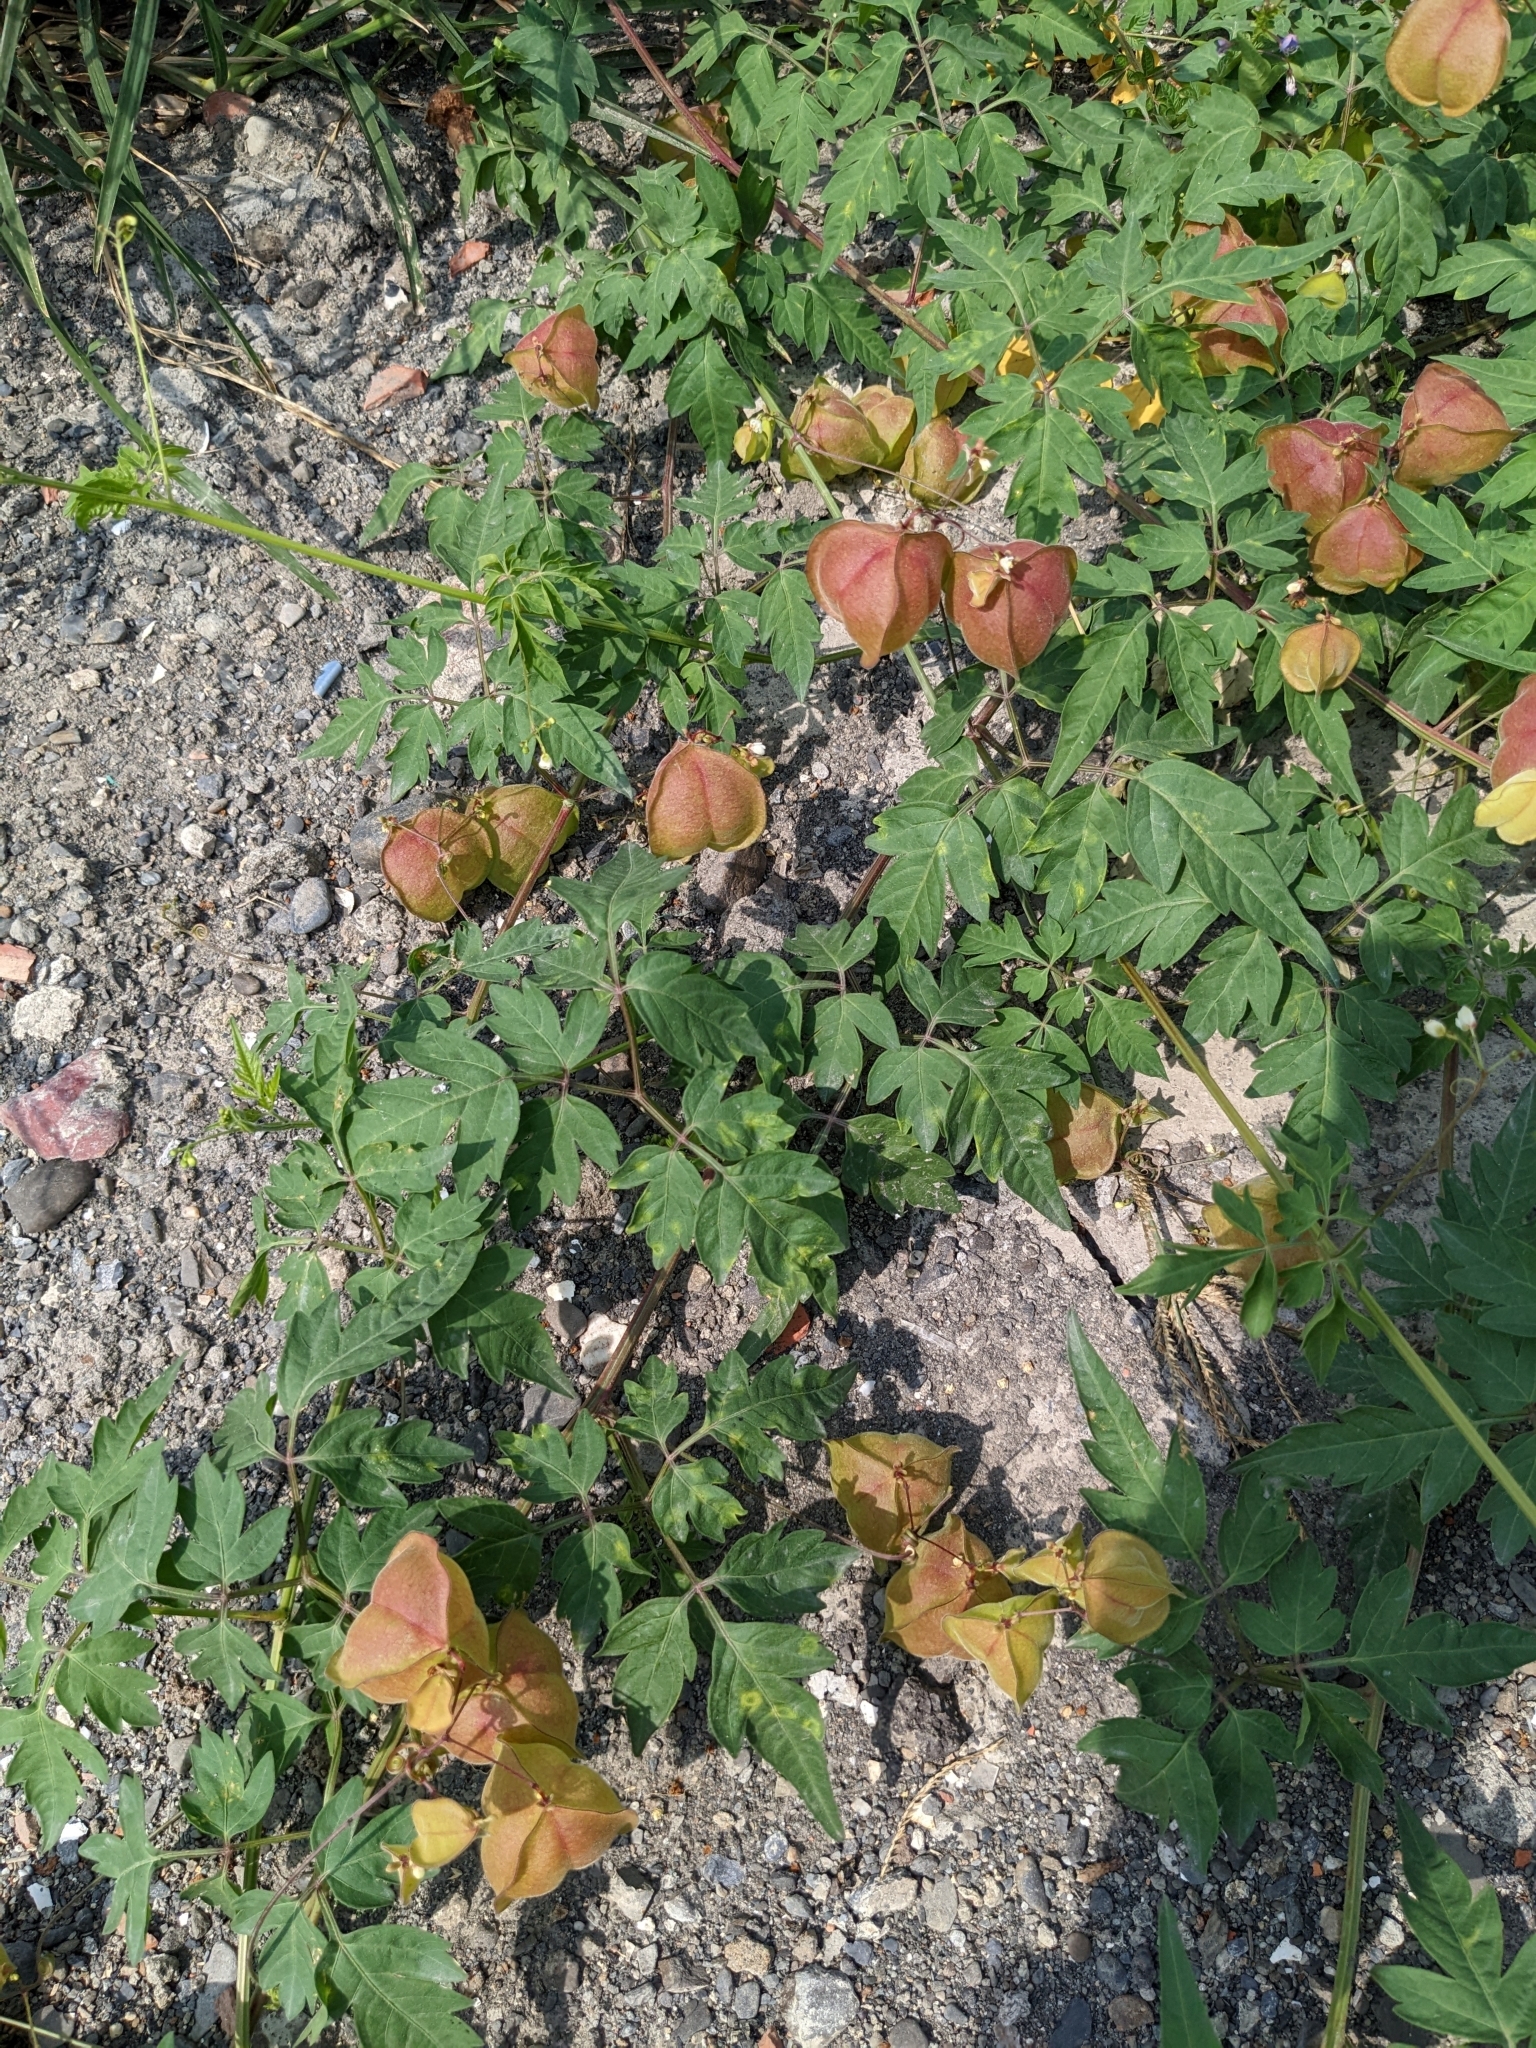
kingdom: Plantae
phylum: Tracheophyta
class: Magnoliopsida
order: Sapindales
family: Sapindaceae
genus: Cardiospermum
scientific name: Cardiospermum halicacabum
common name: Balloon vine
